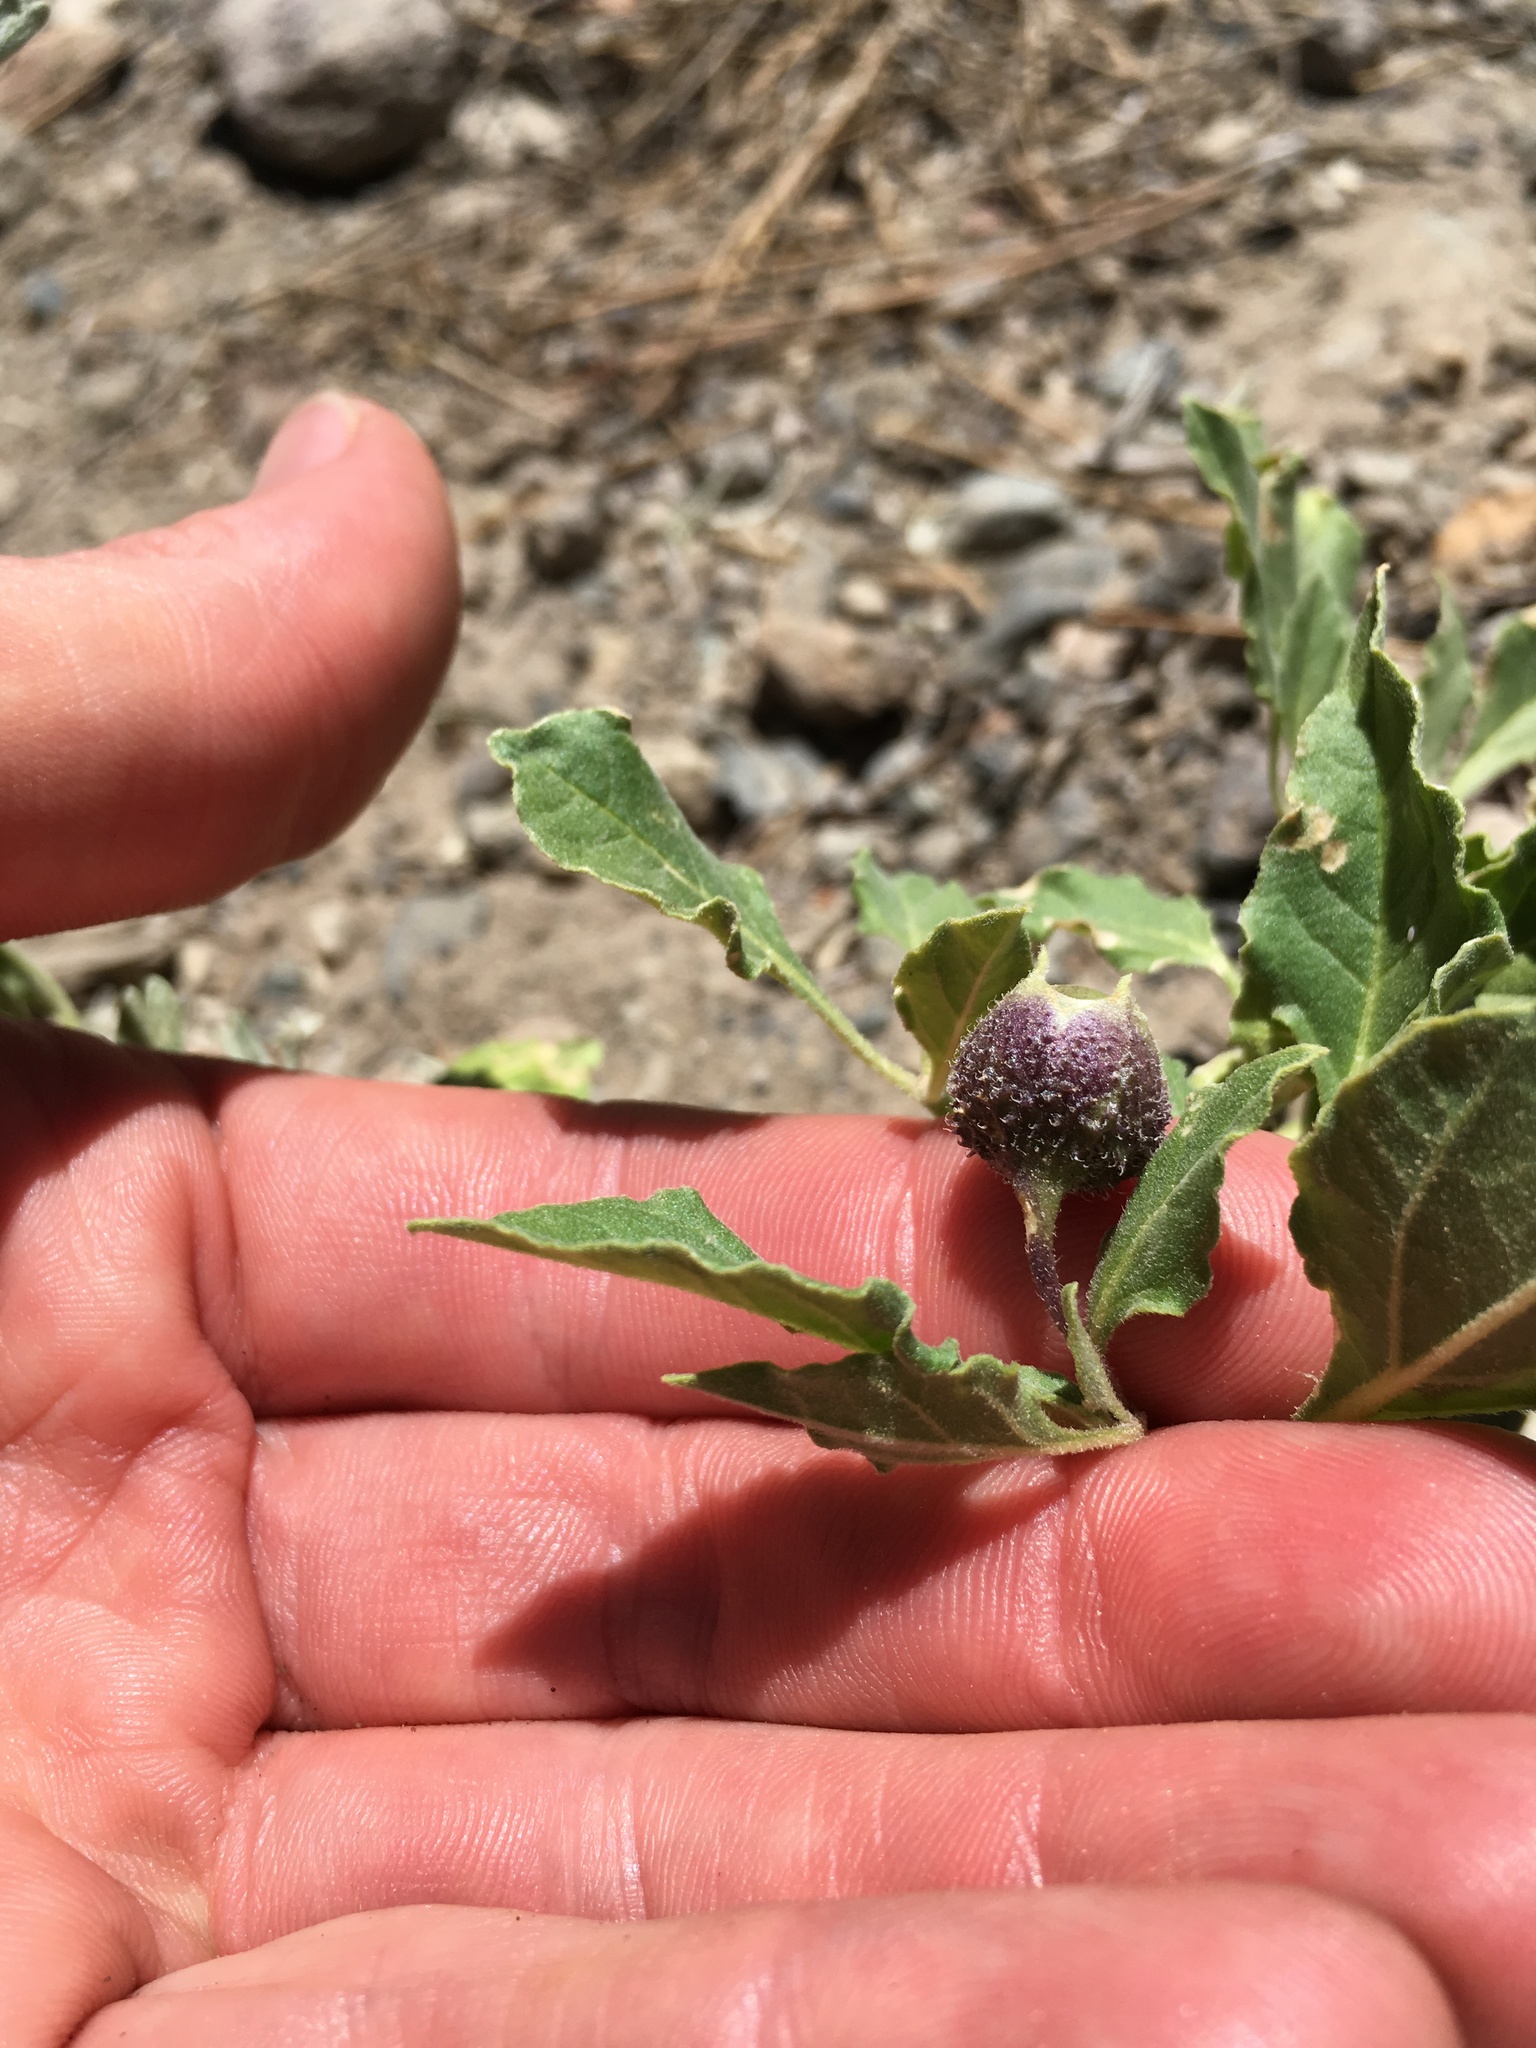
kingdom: Plantae
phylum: Tracheophyta
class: Magnoliopsida
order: Solanales
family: Solanaceae
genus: Leucophysalis
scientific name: Leucophysalis nana
